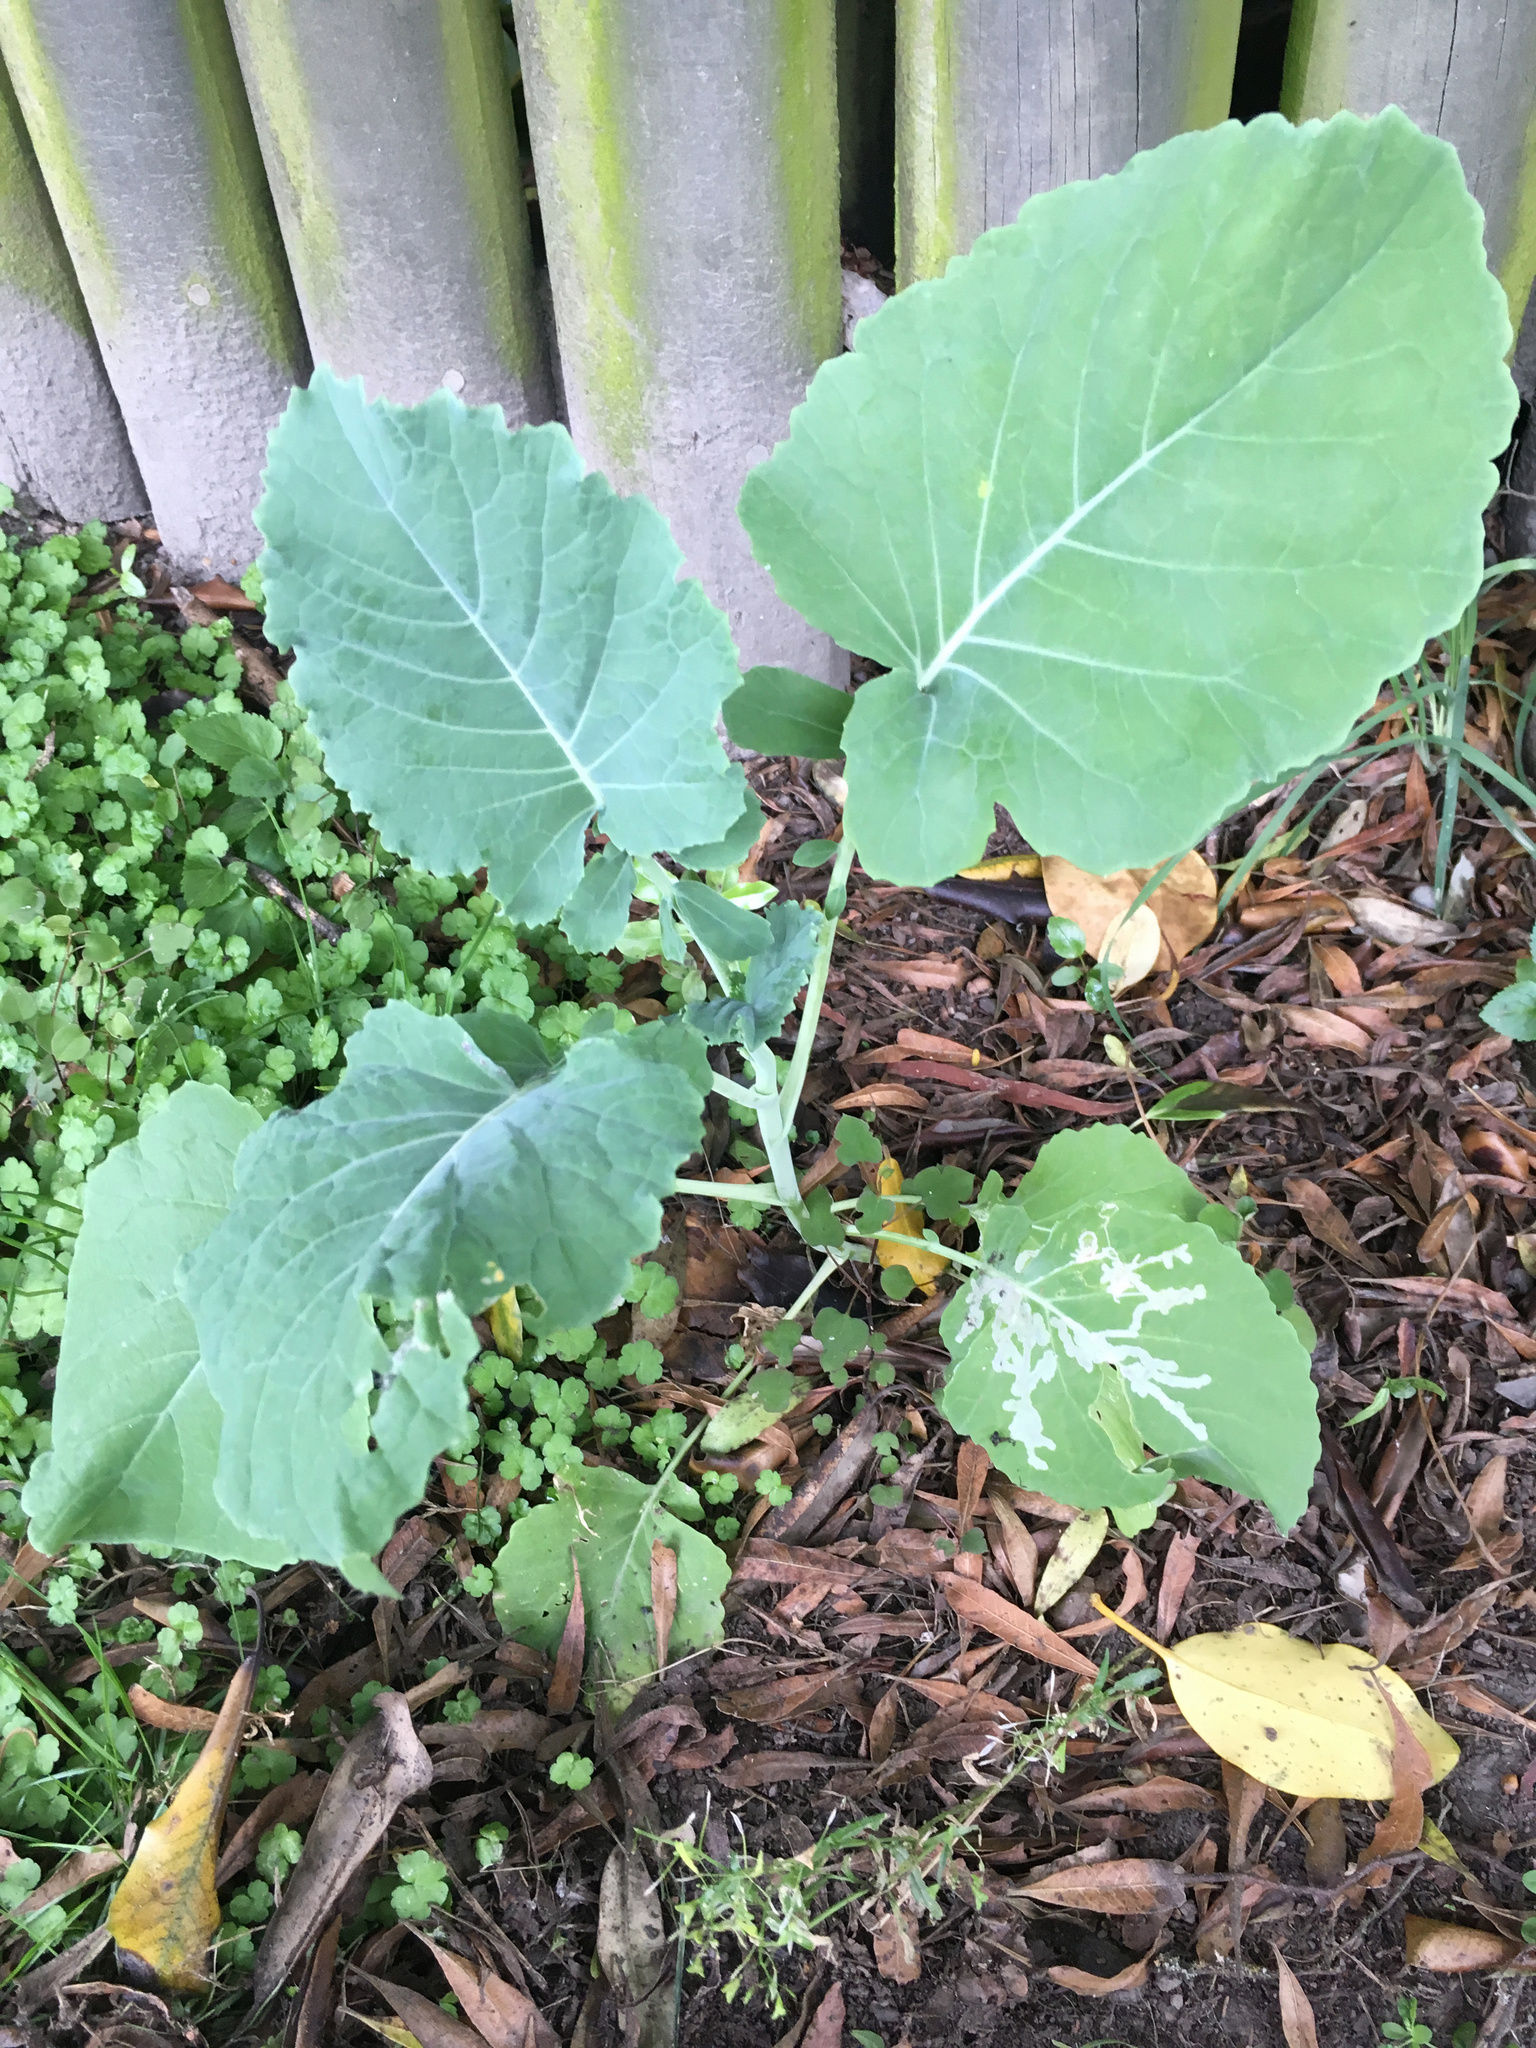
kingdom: Plantae
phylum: Tracheophyta
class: Magnoliopsida
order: Brassicales
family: Brassicaceae
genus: Brassica
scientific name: Brassica oleracea
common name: Cabbage
